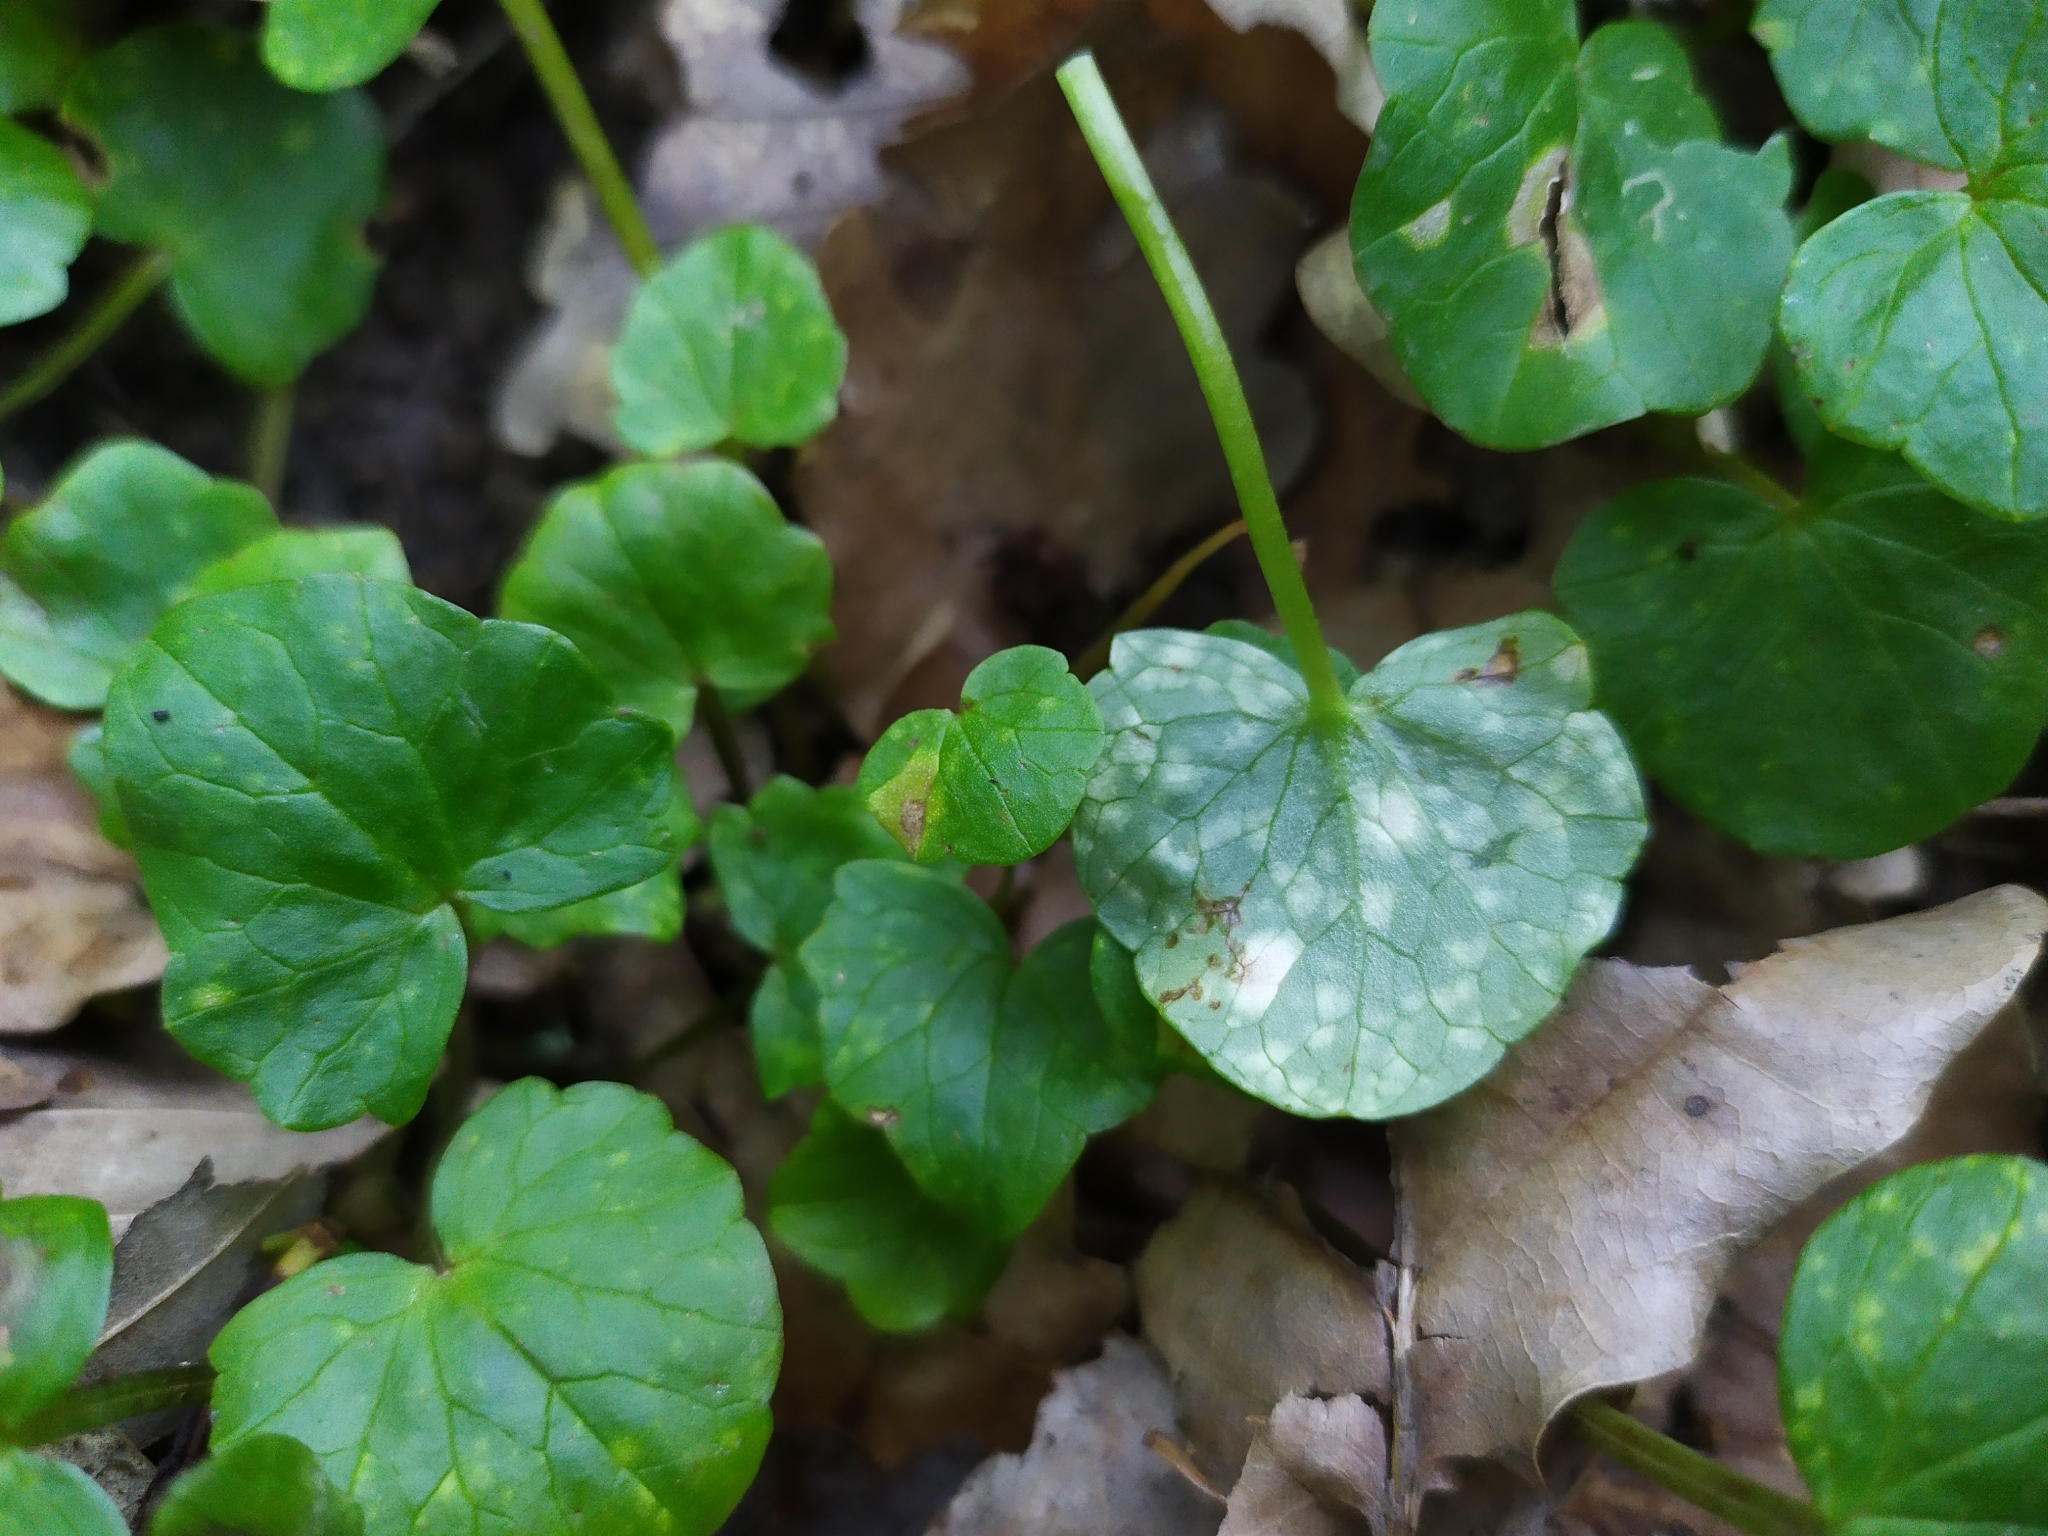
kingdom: Fungi
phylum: Basidiomycota
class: Exobasidiomycetes
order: Entylomatales
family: Entylomataceae
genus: Entyloma
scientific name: Entyloma ficariae
